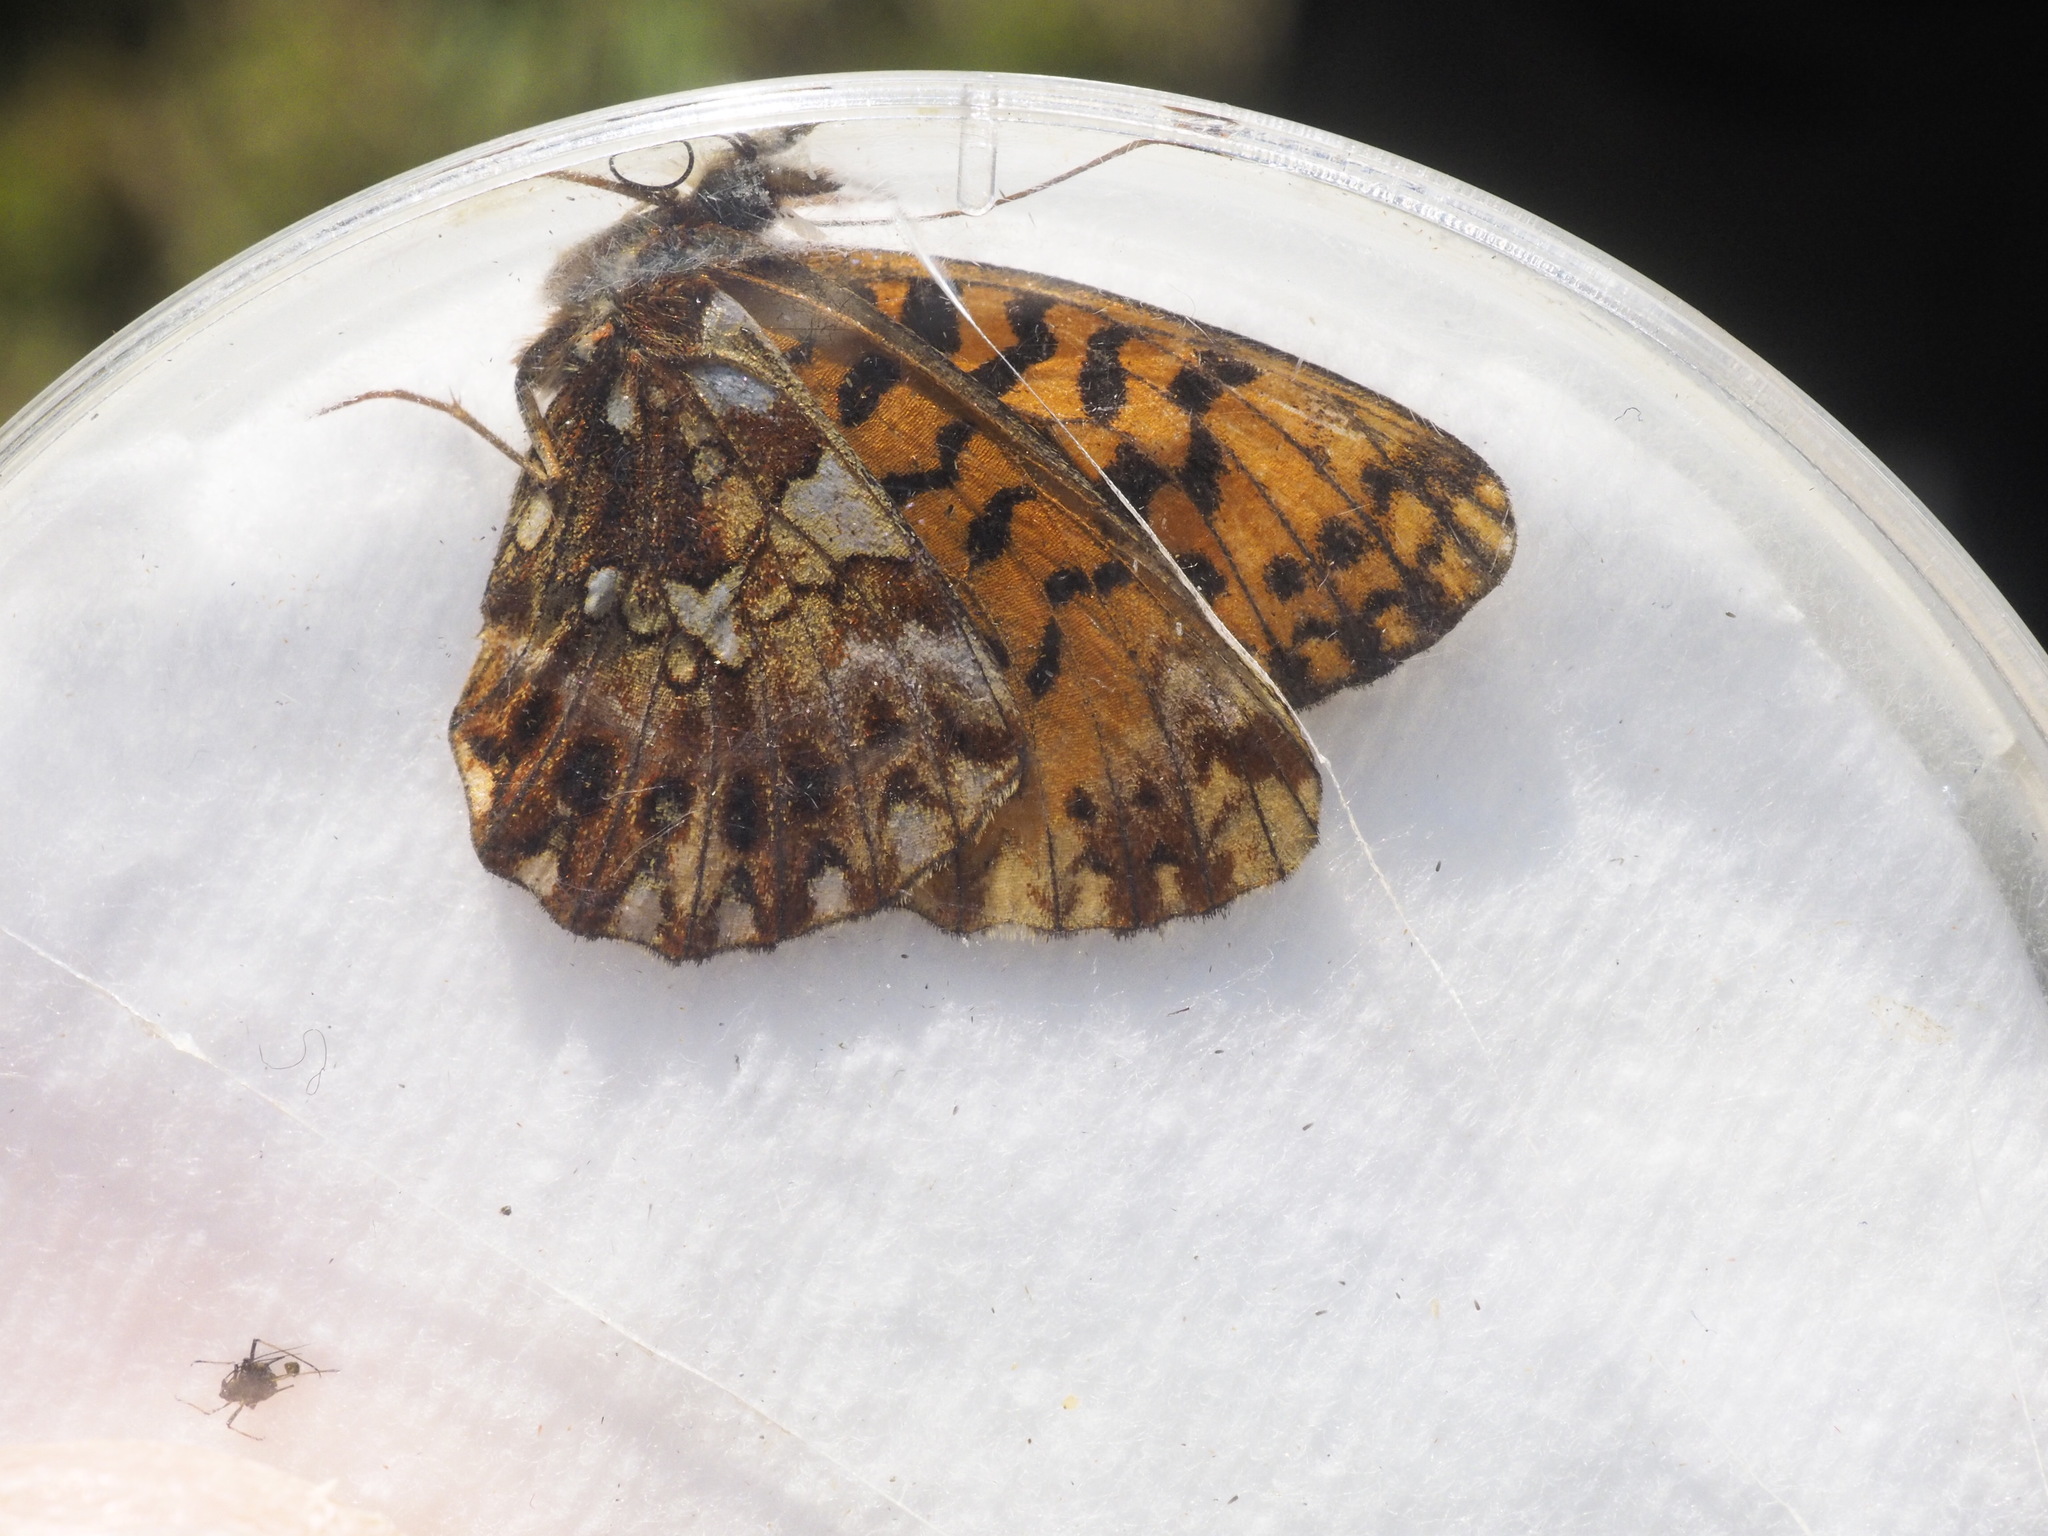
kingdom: Animalia
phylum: Arthropoda
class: Insecta
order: Lepidoptera
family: Nymphalidae
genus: Boloria
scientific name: Boloria dia
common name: Weaver's fritillary
